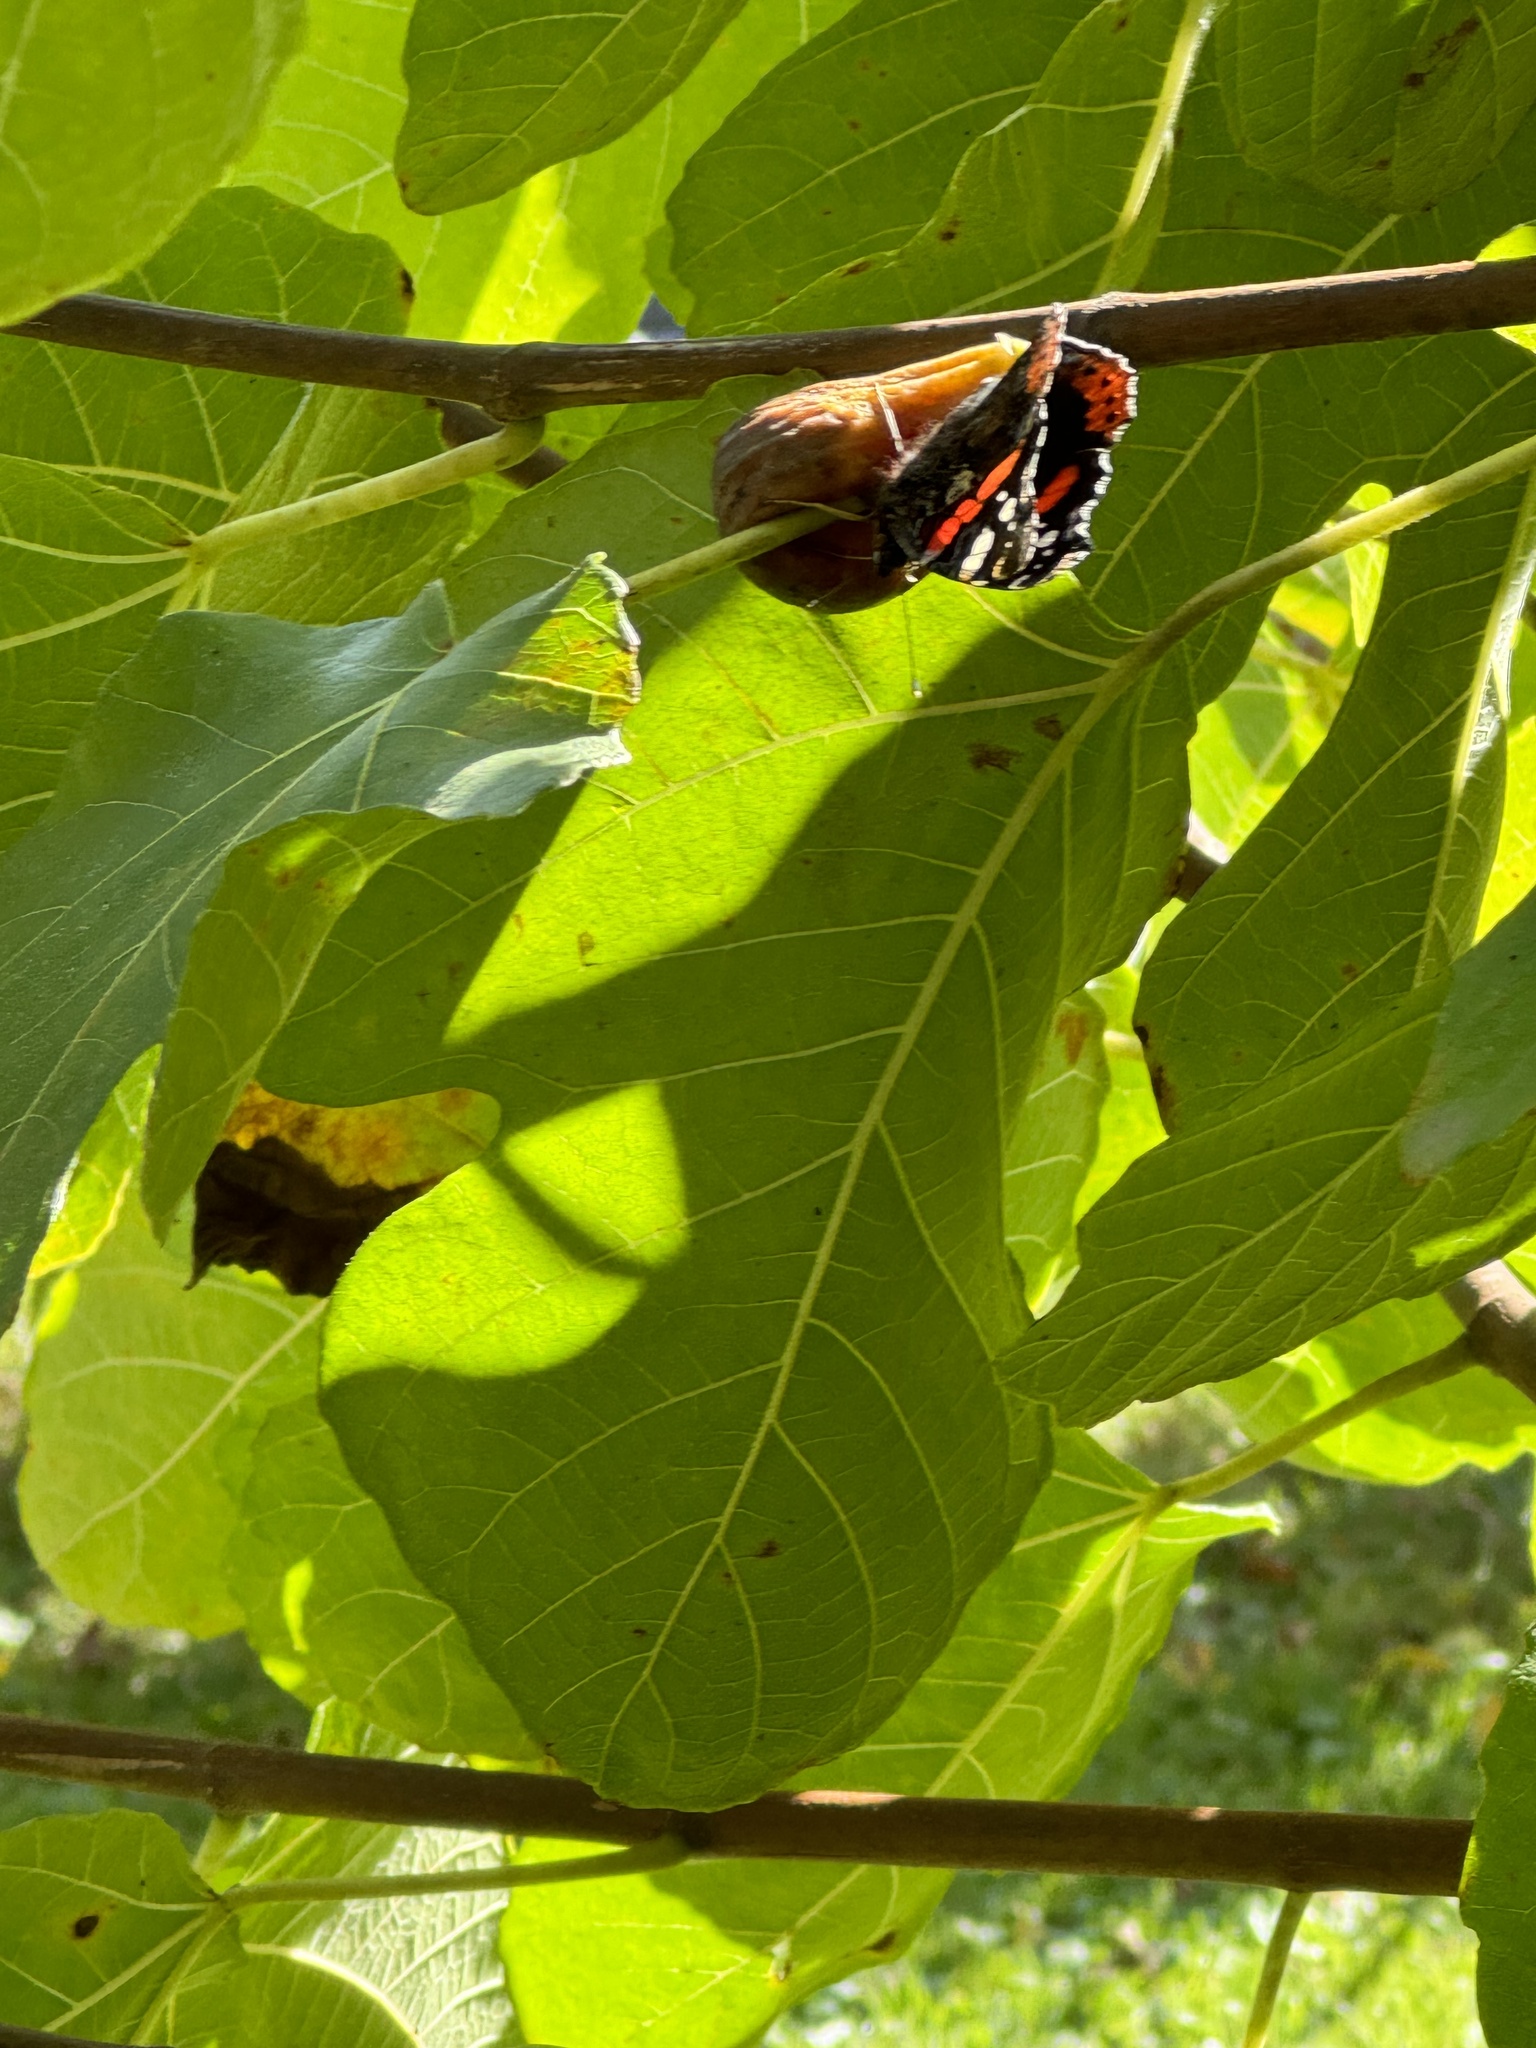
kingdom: Animalia
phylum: Arthropoda
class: Insecta
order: Lepidoptera
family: Nymphalidae
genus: Vanessa
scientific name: Vanessa atalanta
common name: Red admiral
